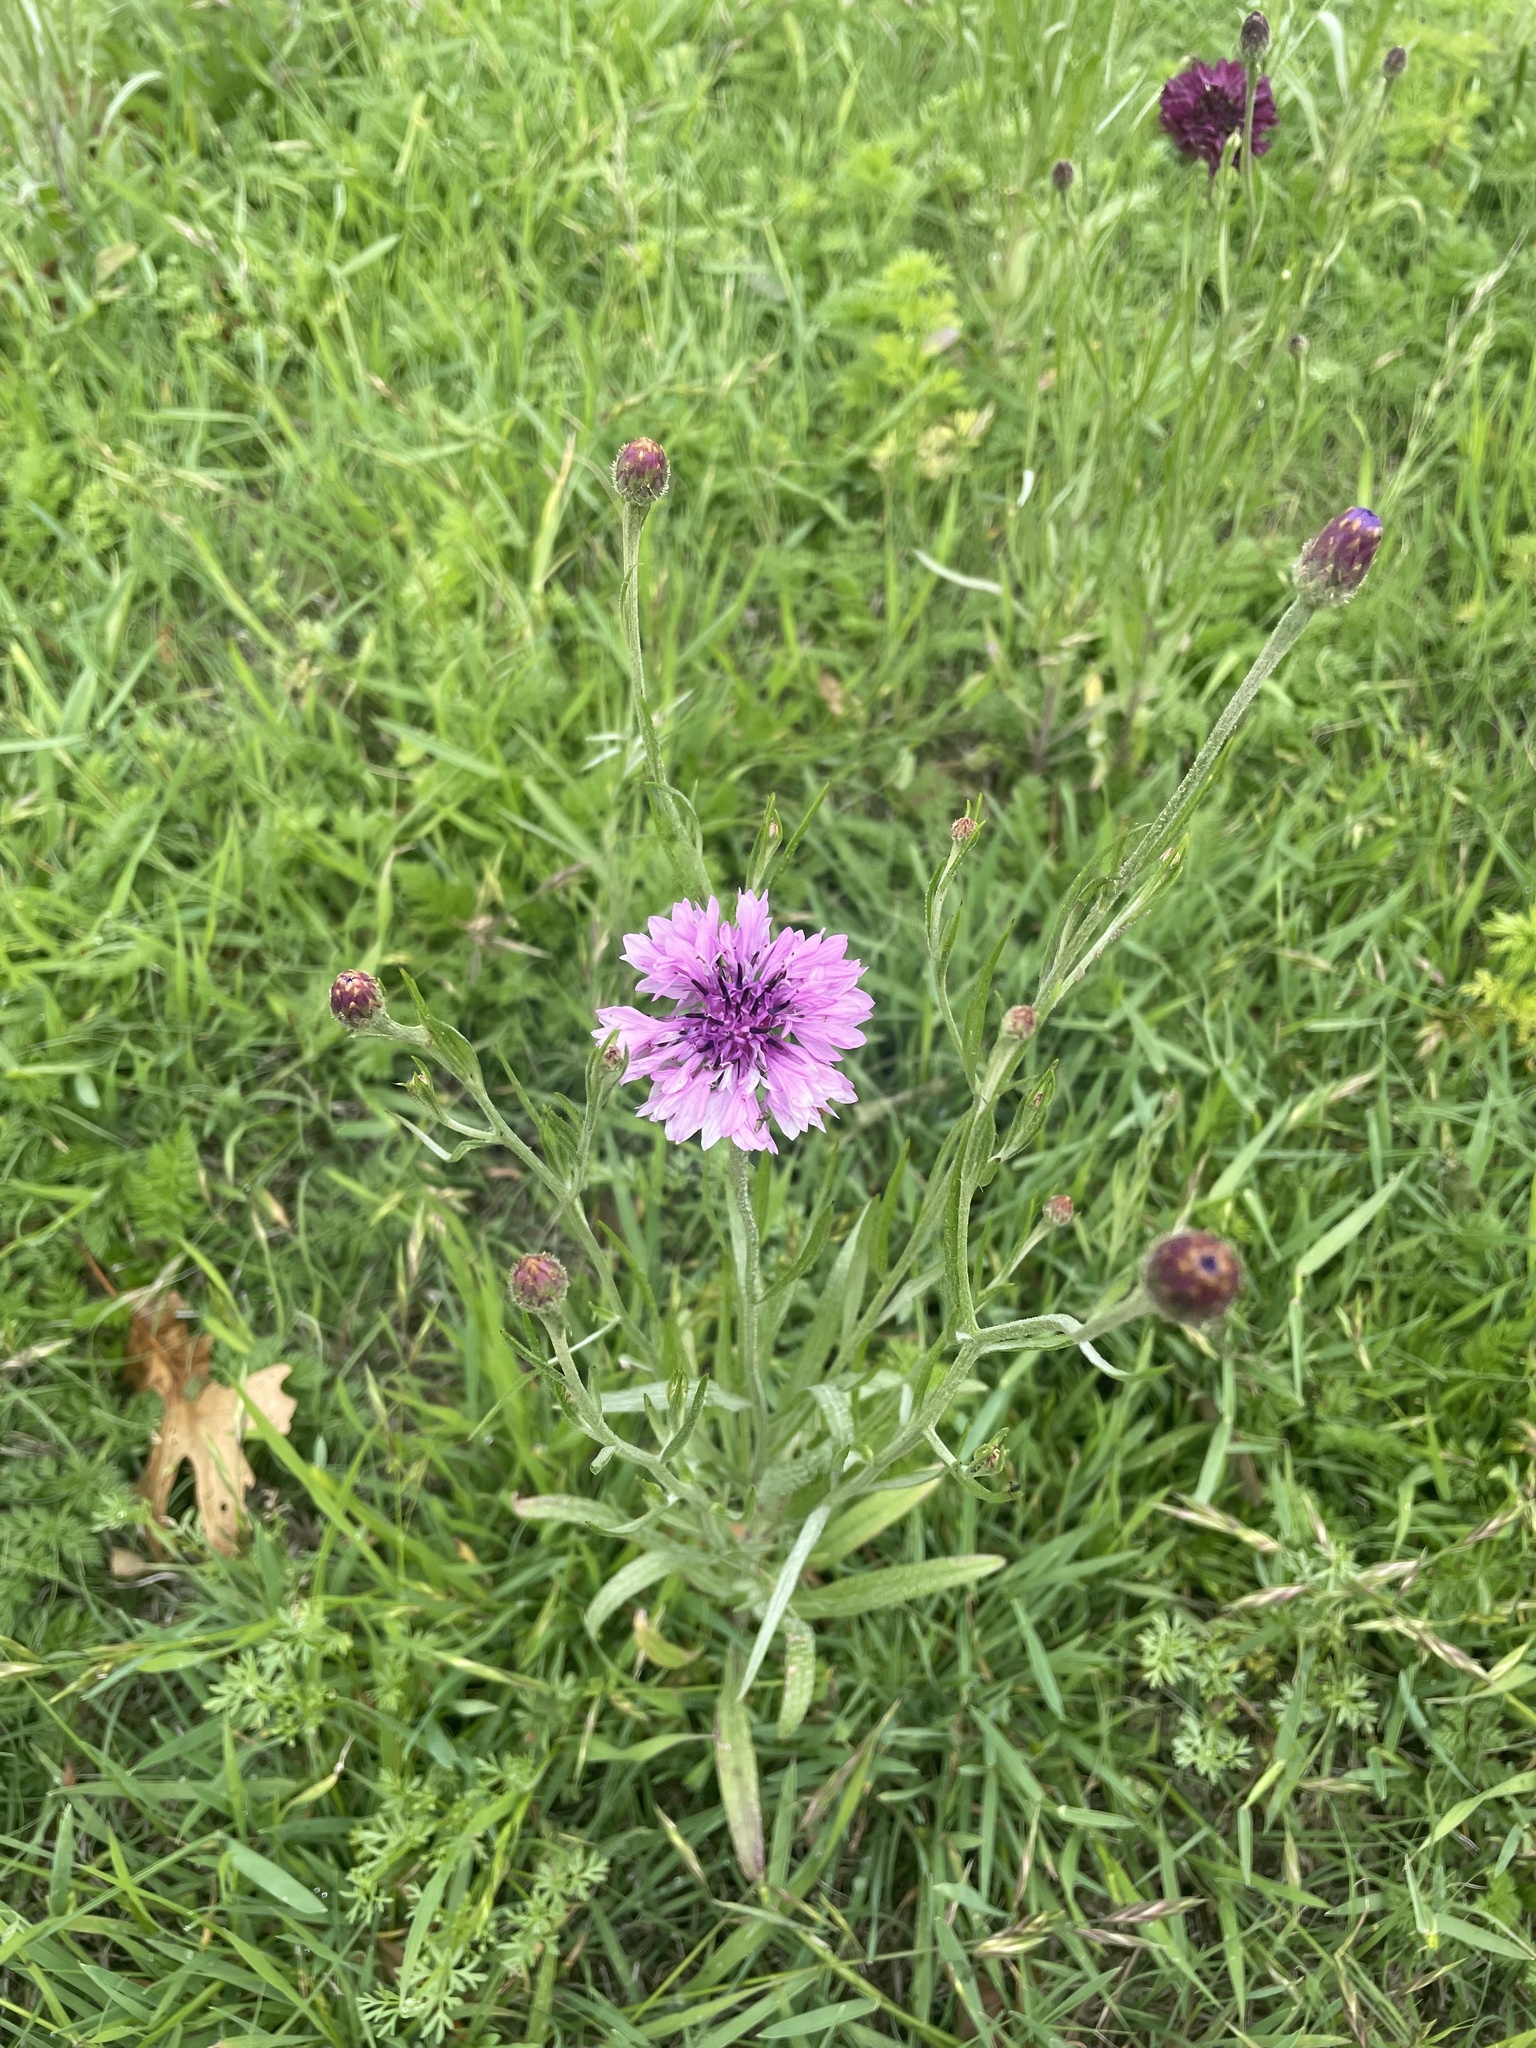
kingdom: Plantae
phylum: Tracheophyta
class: Magnoliopsida
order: Asterales
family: Asteraceae
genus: Centaurea
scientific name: Centaurea cyanus
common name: Cornflower
